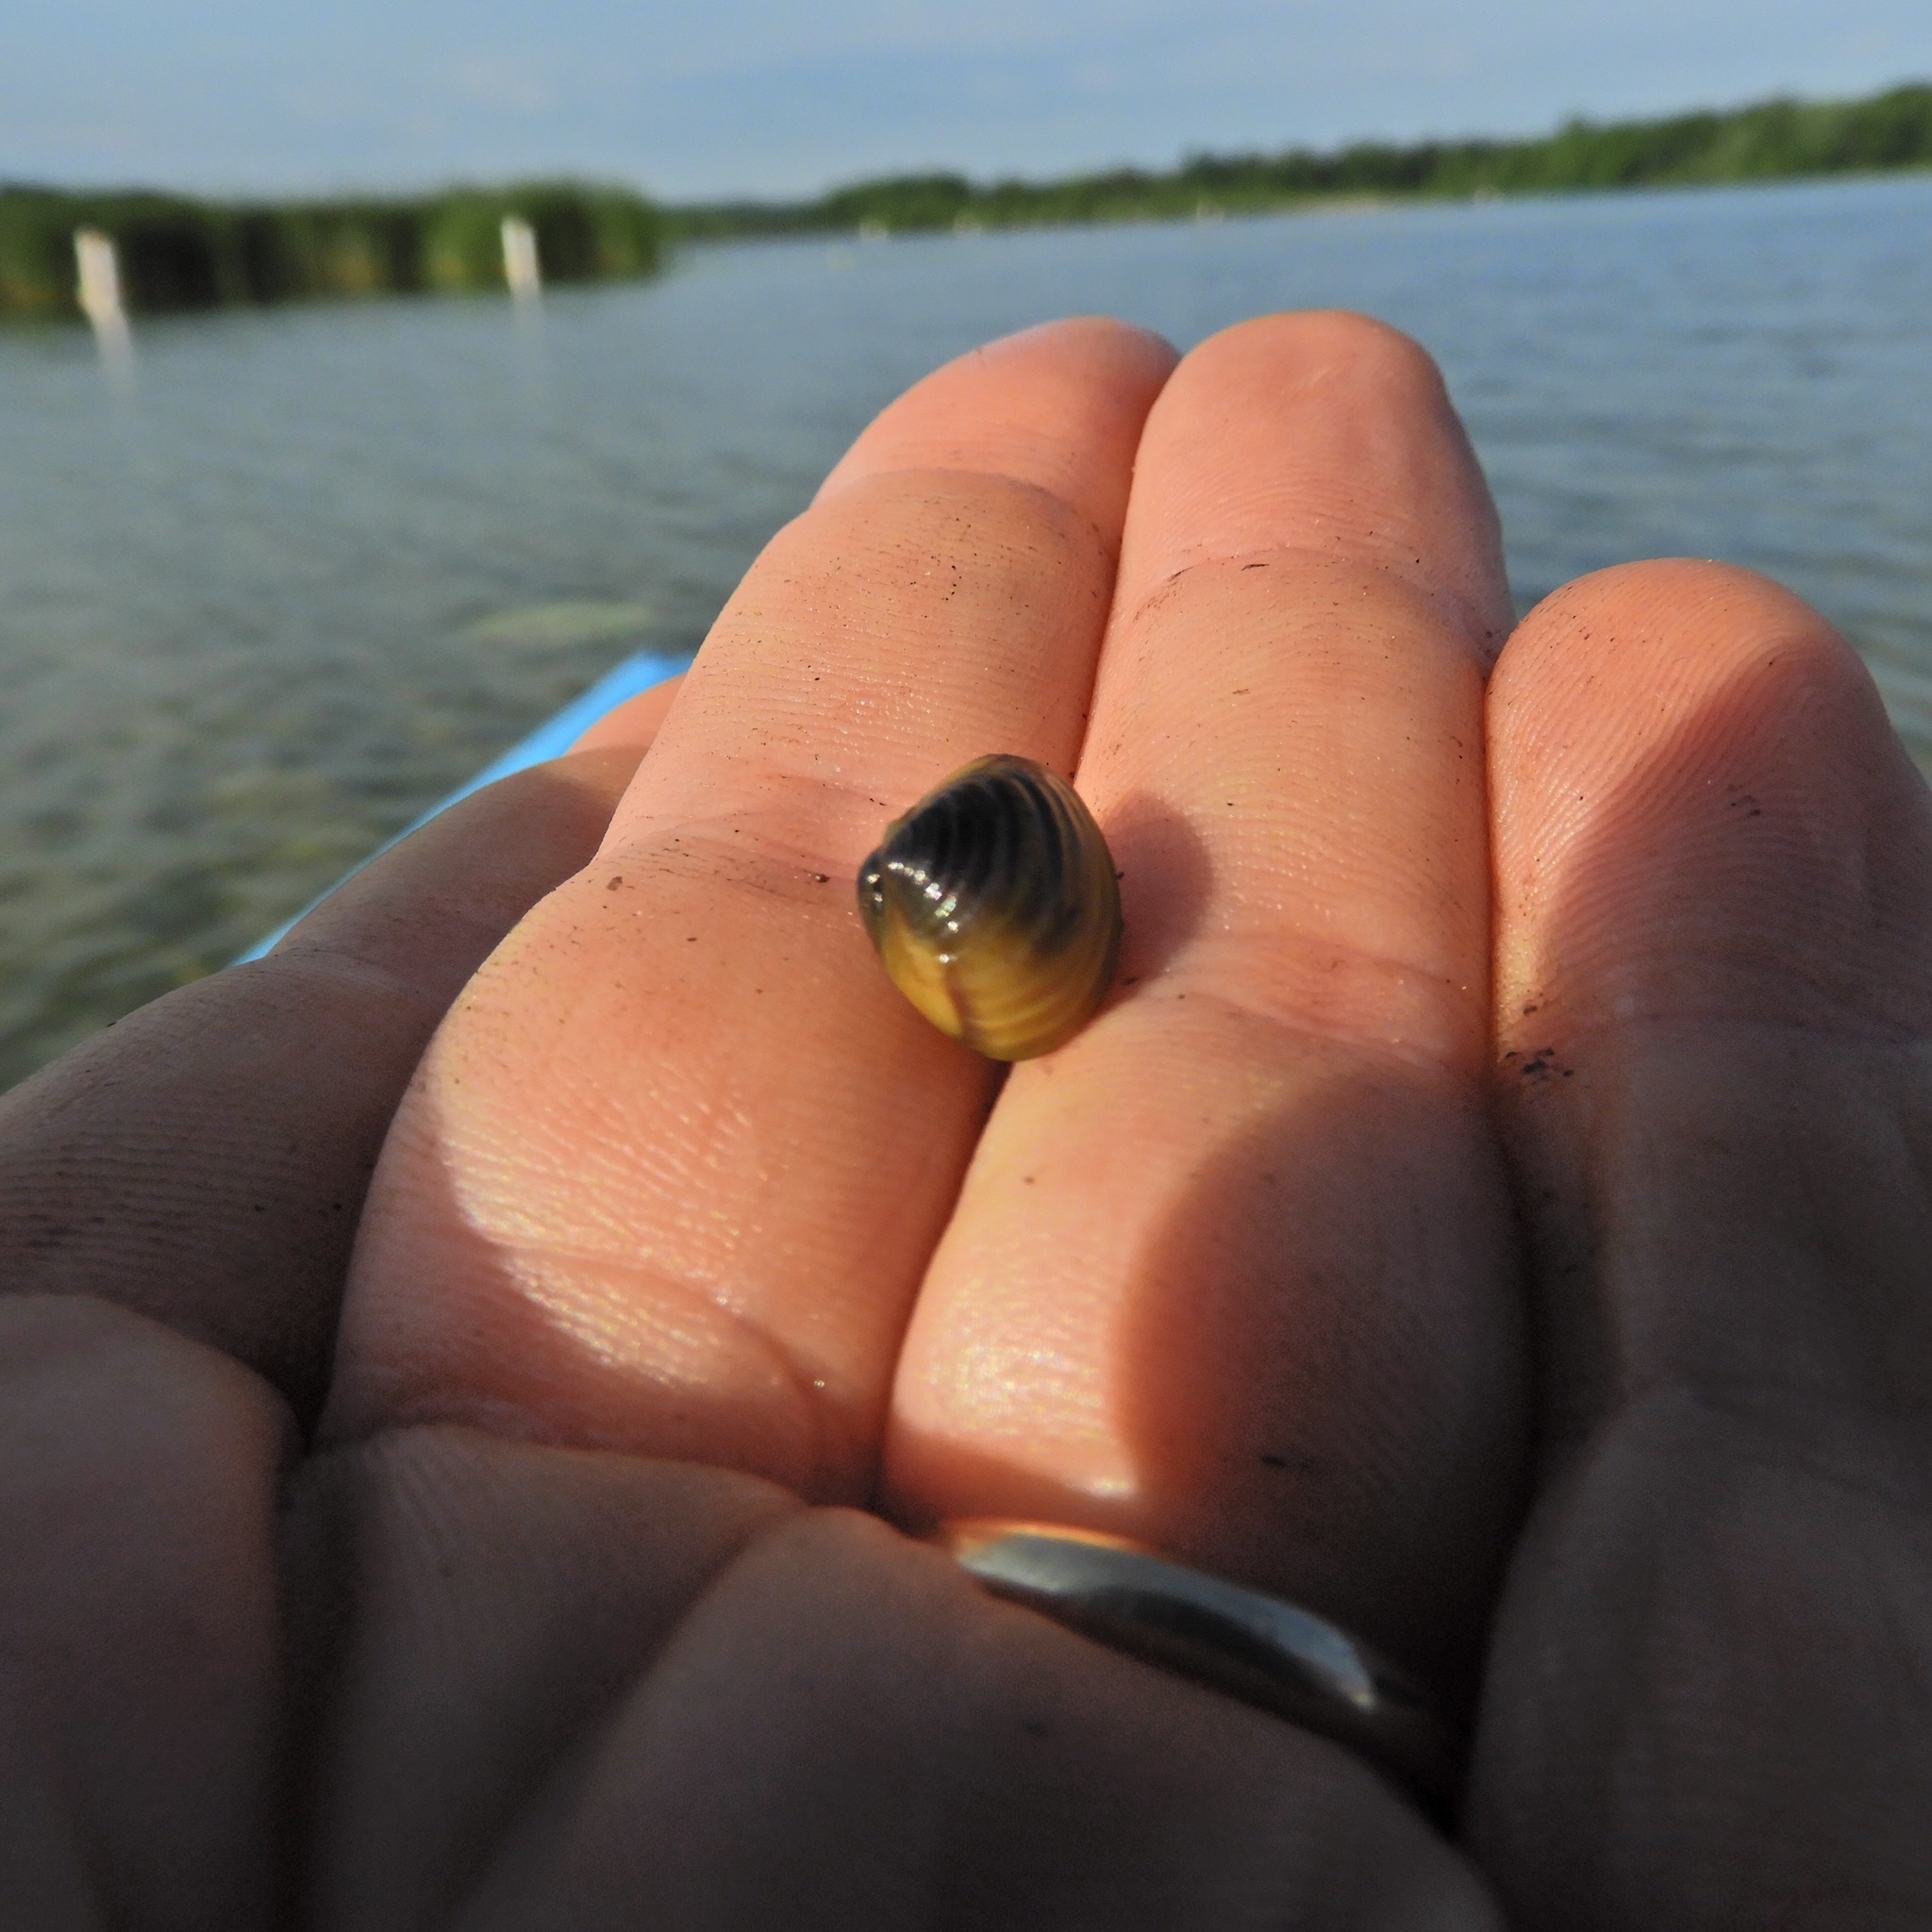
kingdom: Animalia
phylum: Mollusca
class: Bivalvia
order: Venerida
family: Cyrenidae
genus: Corbicula
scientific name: Corbicula fluminea
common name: Asian clam
